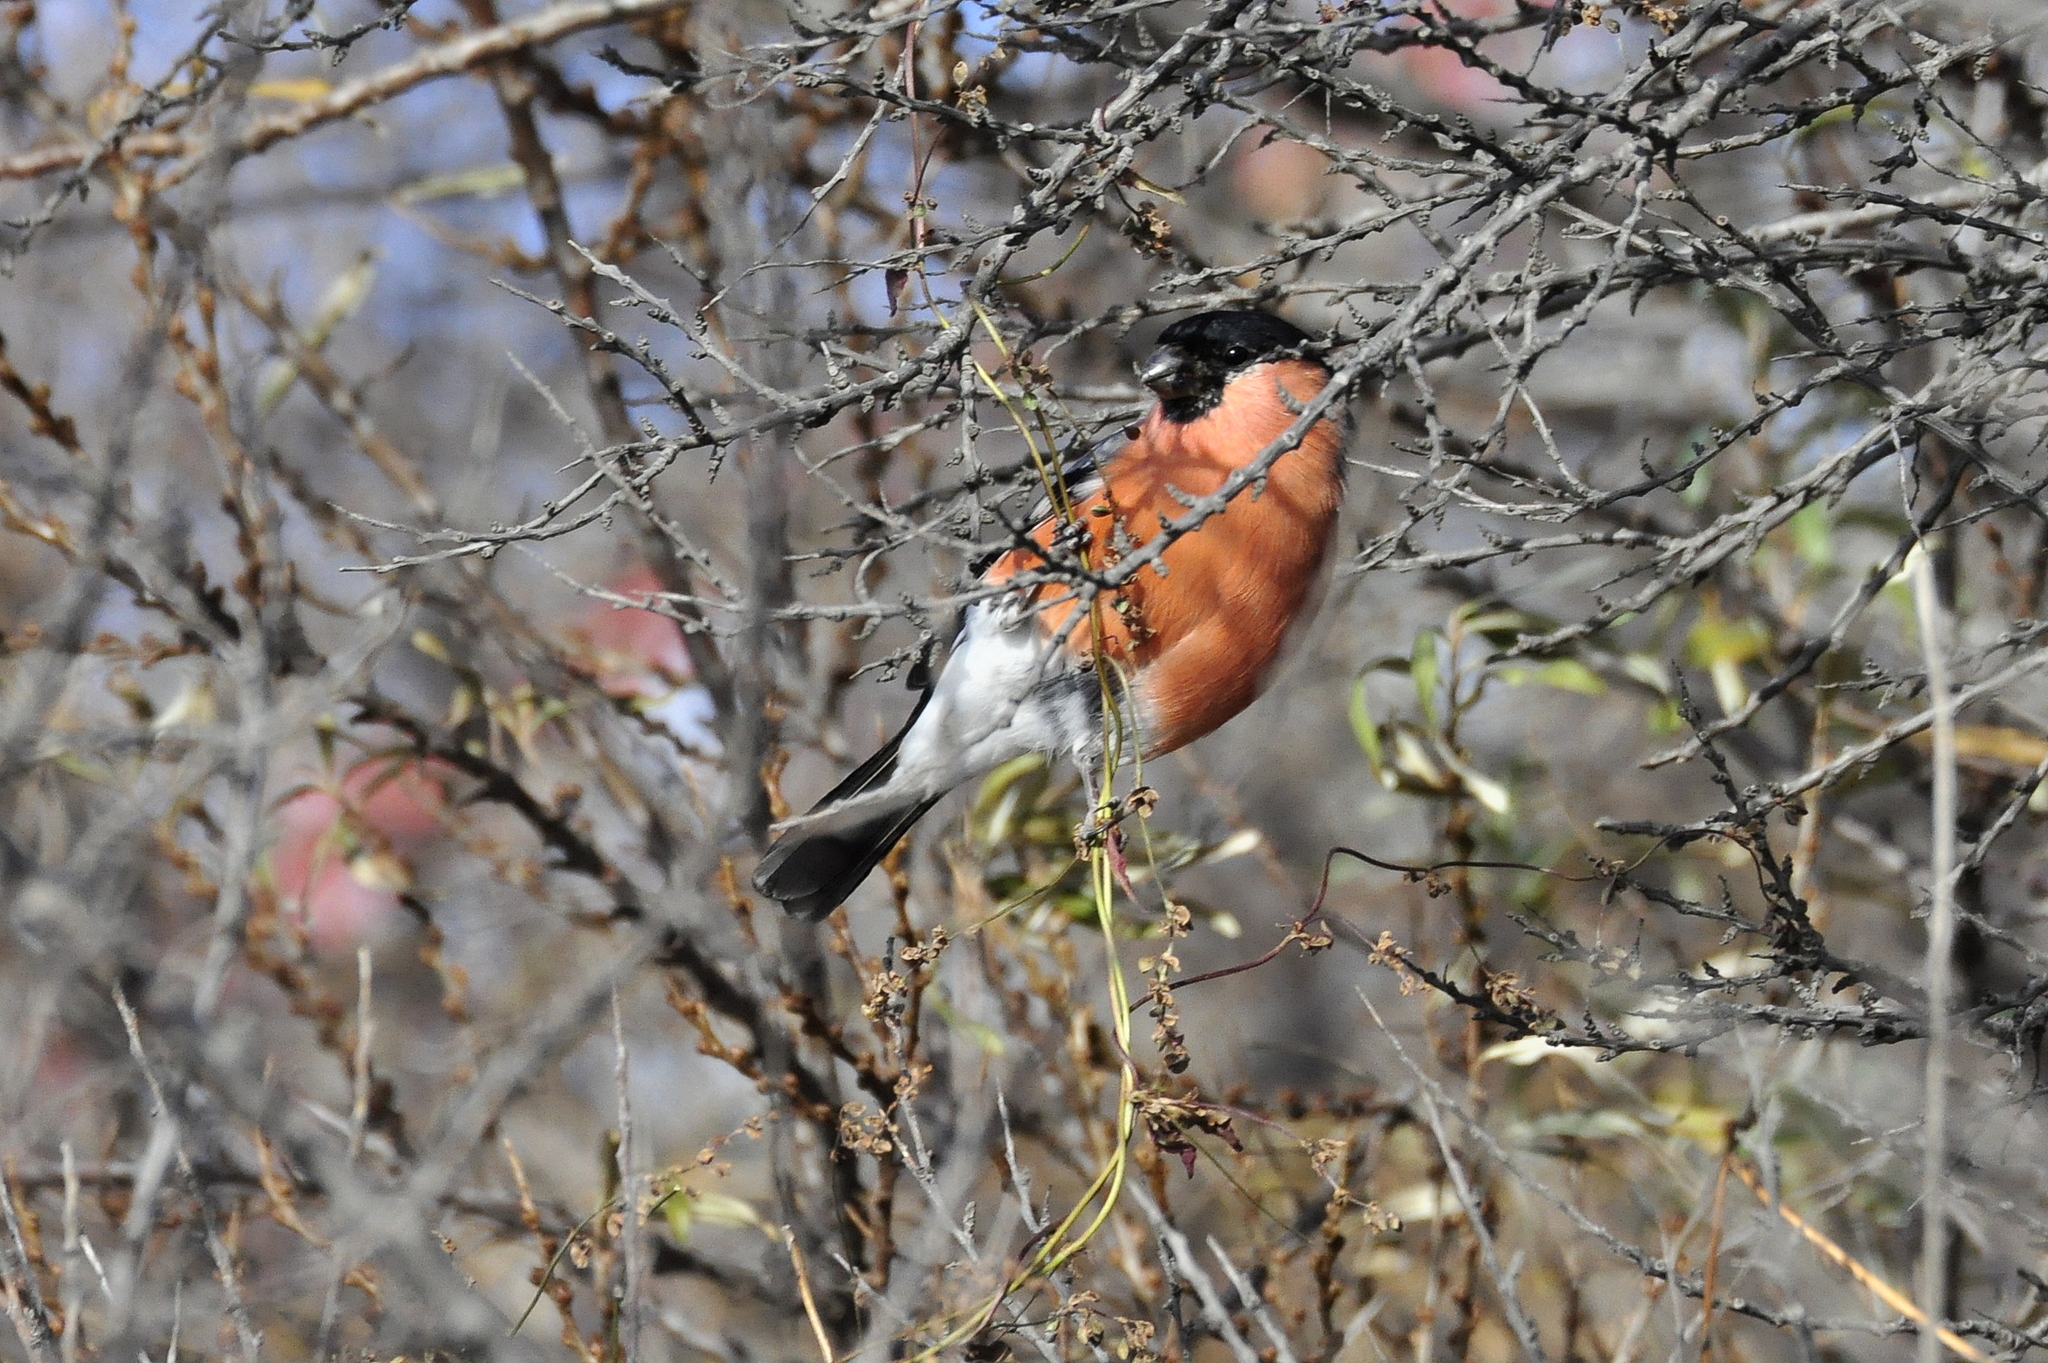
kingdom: Animalia
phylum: Chordata
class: Aves
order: Passeriformes
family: Fringillidae
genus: Pyrrhula
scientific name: Pyrrhula pyrrhula
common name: Eurasian bullfinch
